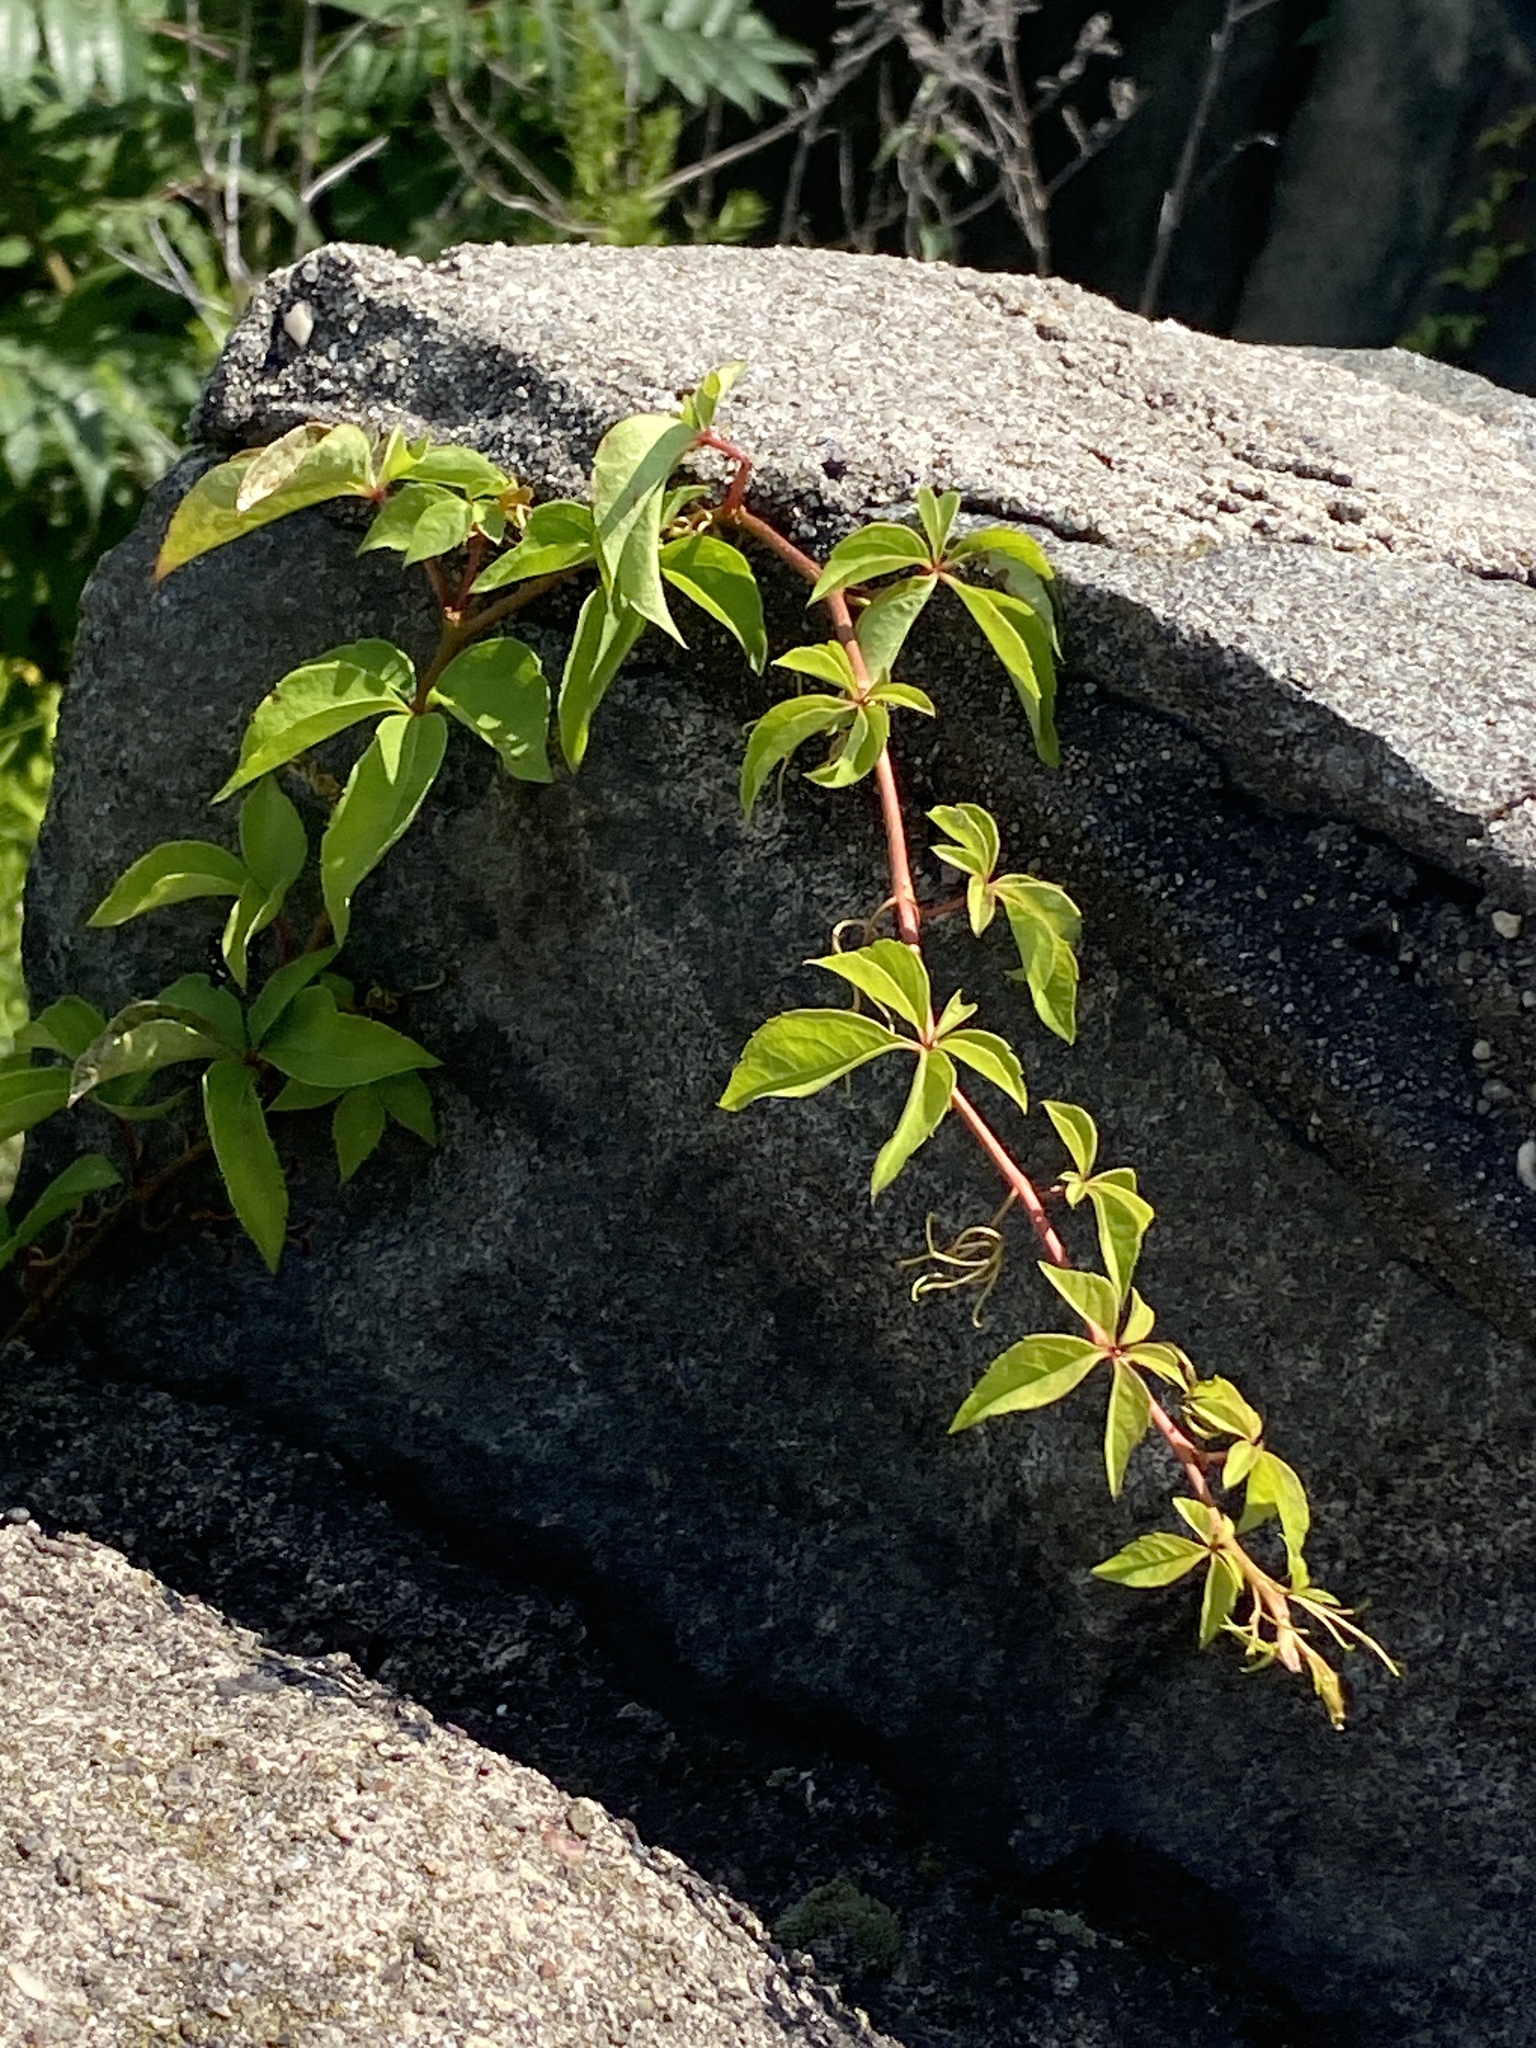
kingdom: Plantae
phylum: Tracheophyta
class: Magnoliopsida
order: Vitales
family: Vitaceae
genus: Parthenocissus
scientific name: Parthenocissus quinquefolia
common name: Virginia-creeper
